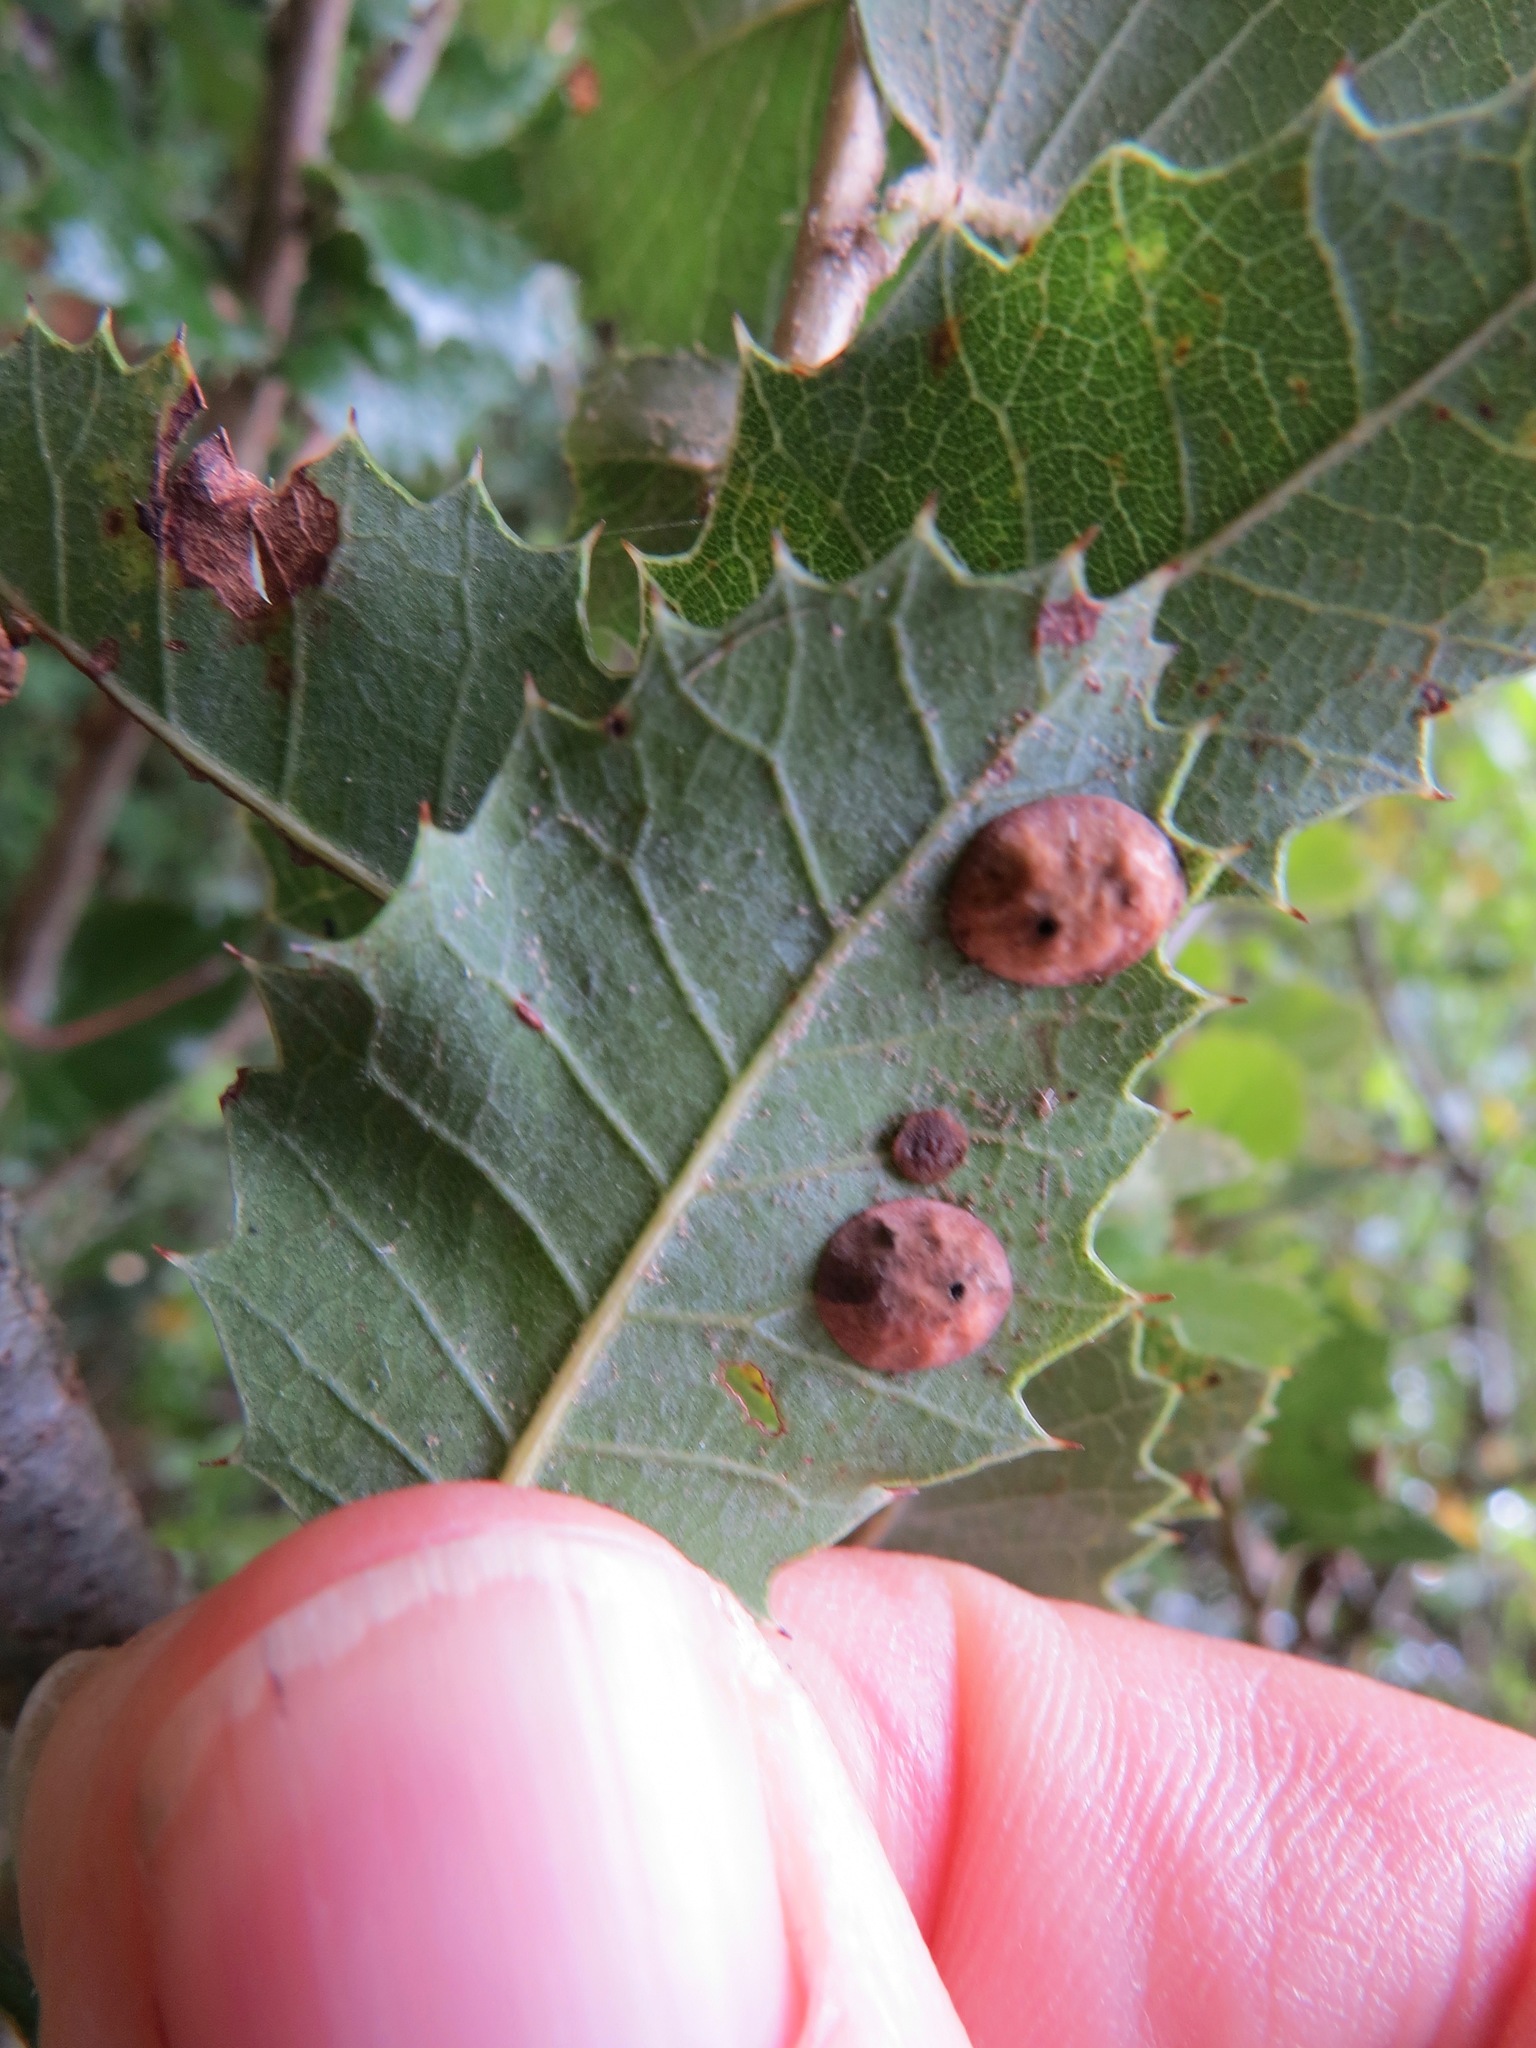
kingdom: Animalia
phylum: Arthropoda
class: Insecta
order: Hymenoptera
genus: Paracraspis
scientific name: Paracraspis
